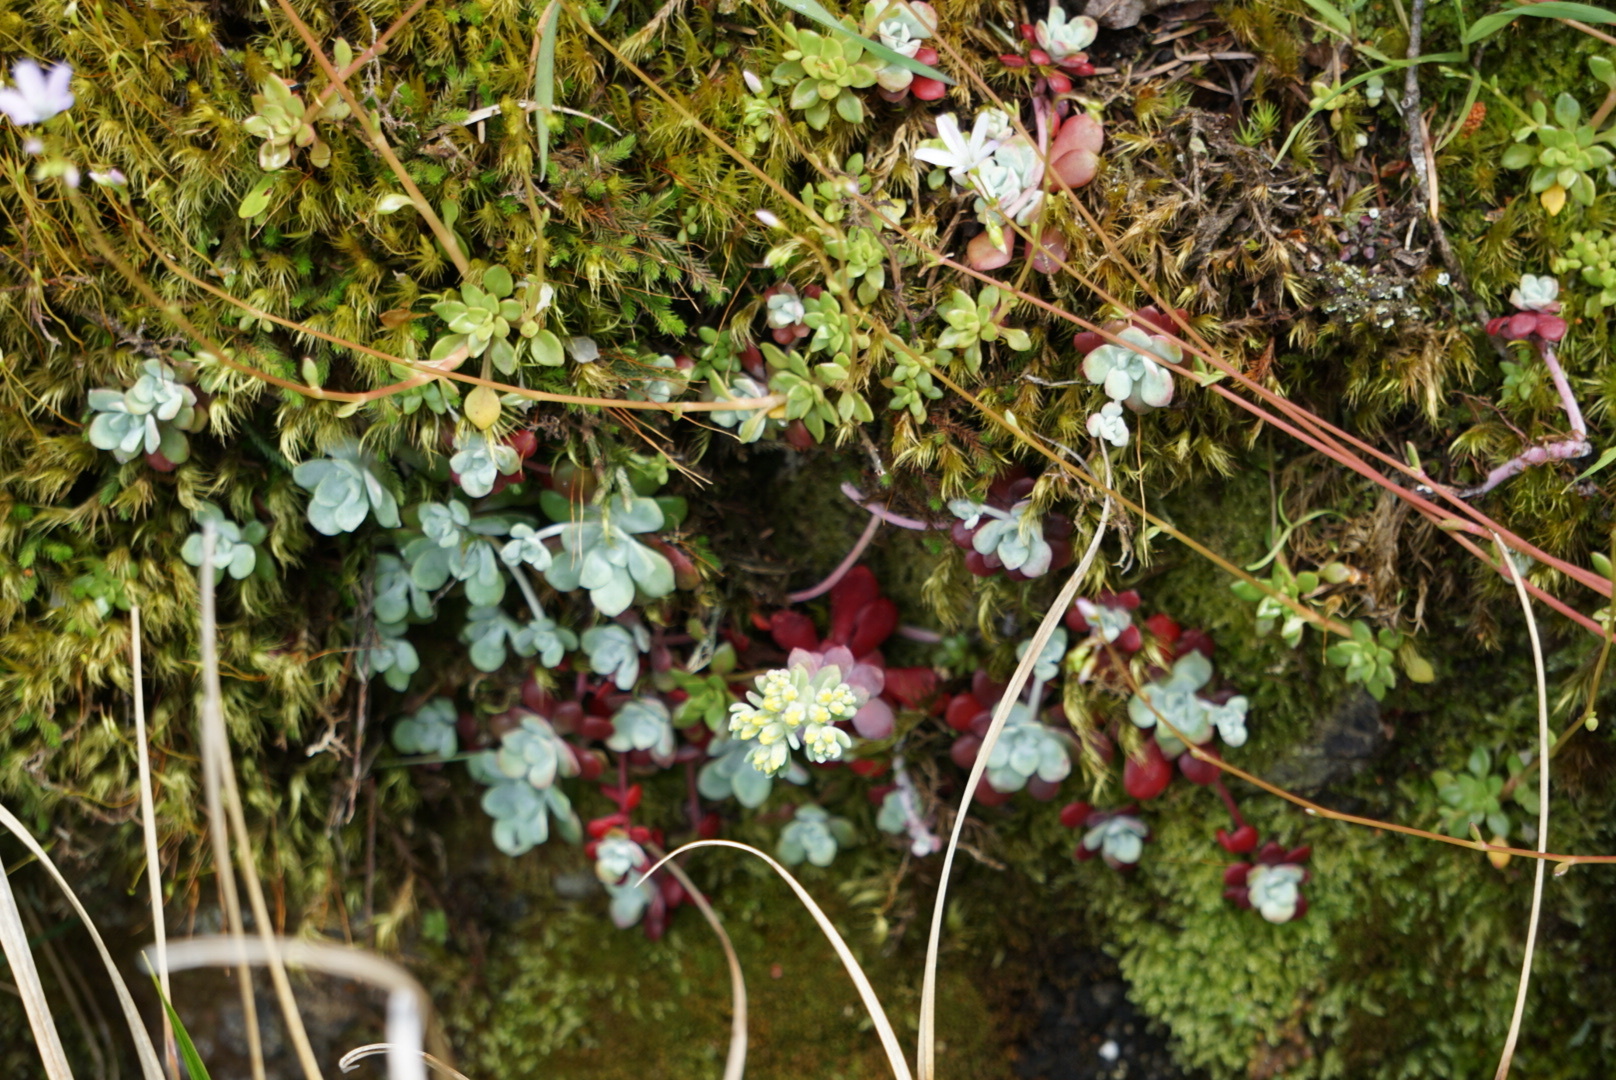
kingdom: Plantae
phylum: Tracheophyta
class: Magnoliopsida
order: Saxifragales
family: Crassulaceae
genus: Sedum
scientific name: Sedum spathulifolium
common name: Colorado stonecrop
